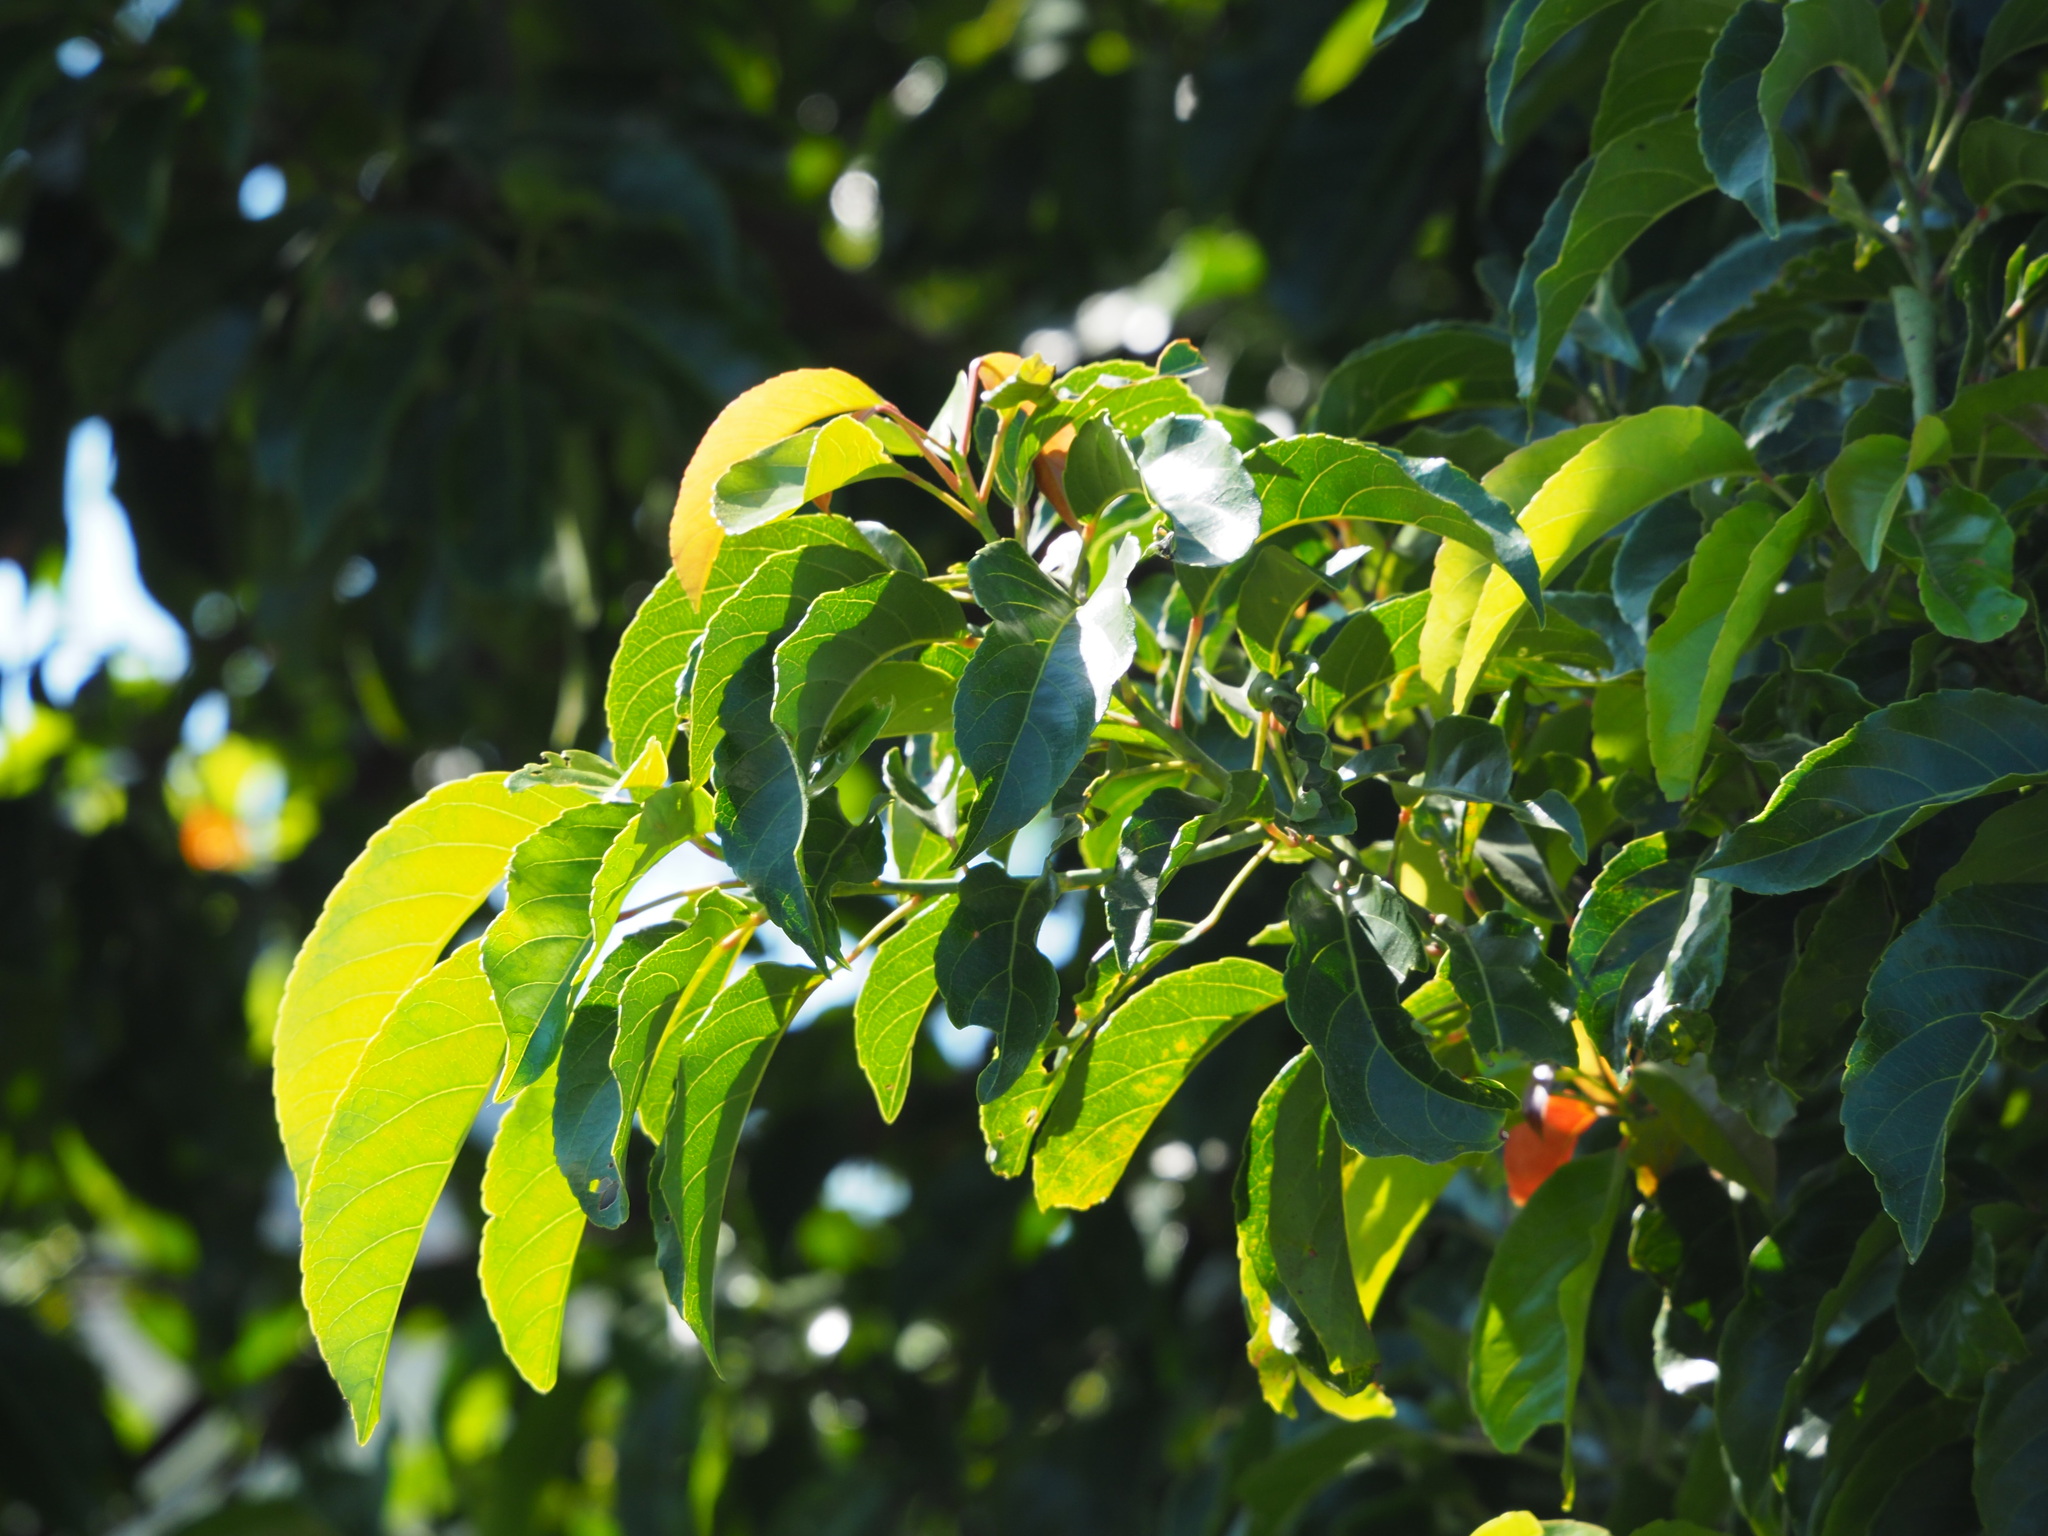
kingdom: Plantae
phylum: Tracheophyta
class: Magnoliopsida
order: Oxalidales
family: Elaeocarpaceae
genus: Elaeocarpus
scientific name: Elaeocarpus serratus
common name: Ceylon-olive
